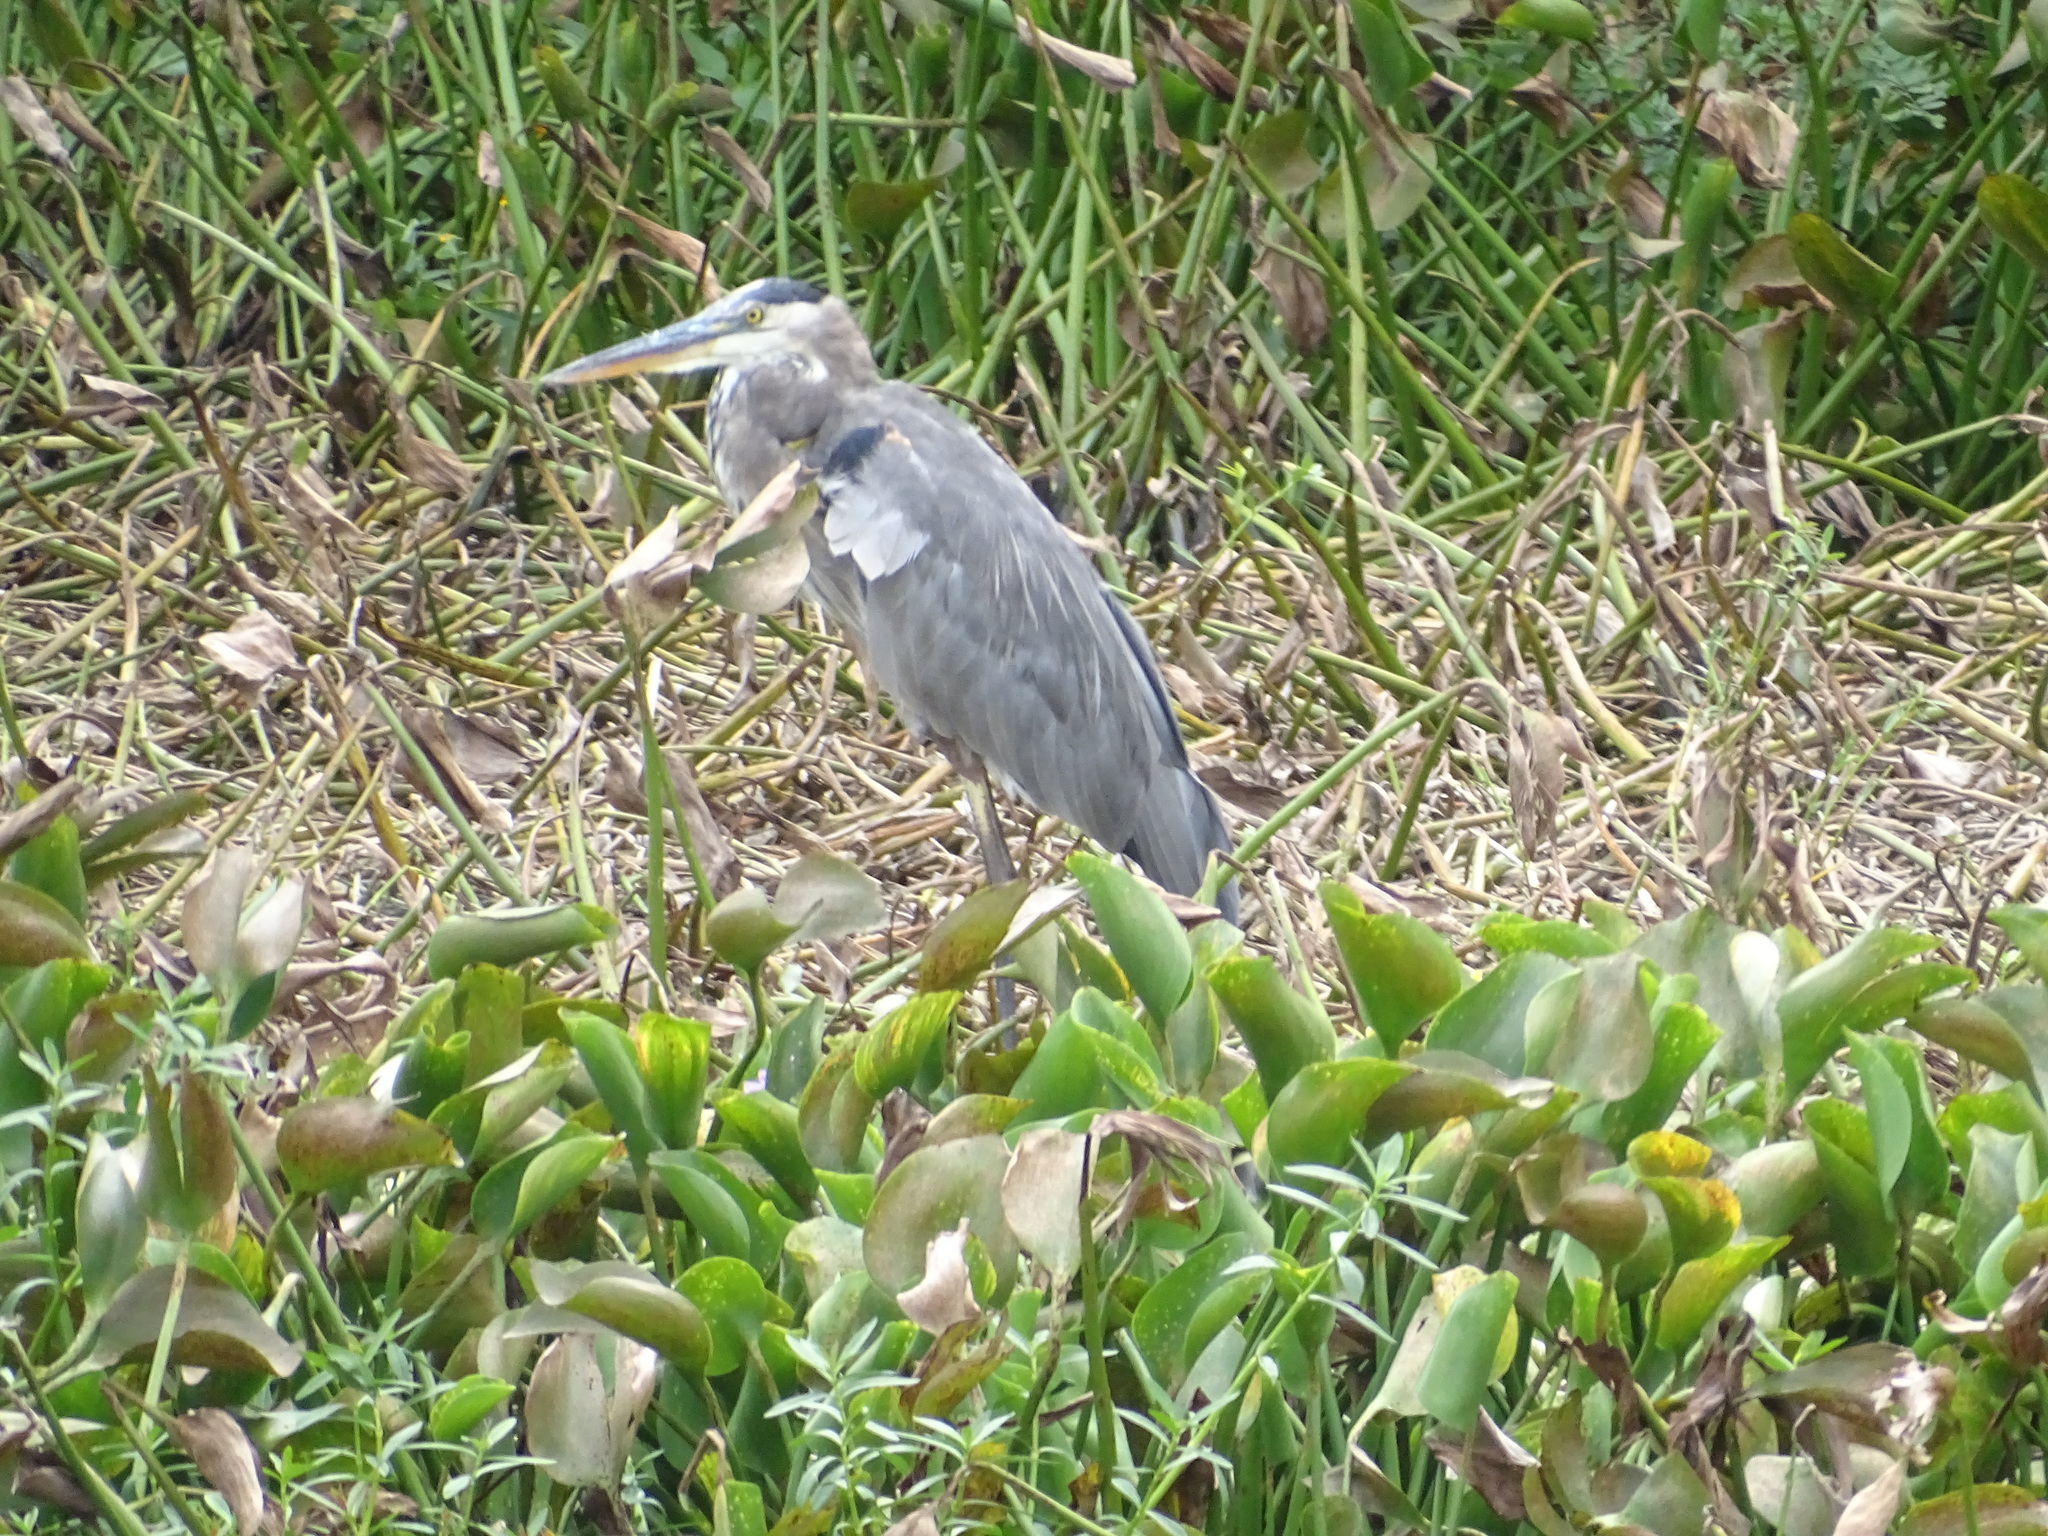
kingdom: Animalia
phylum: Chordata
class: Aves
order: Pelecaniformes
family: Ardeidae
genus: Ardea
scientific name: Ardea herodias
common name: Great blue heron
